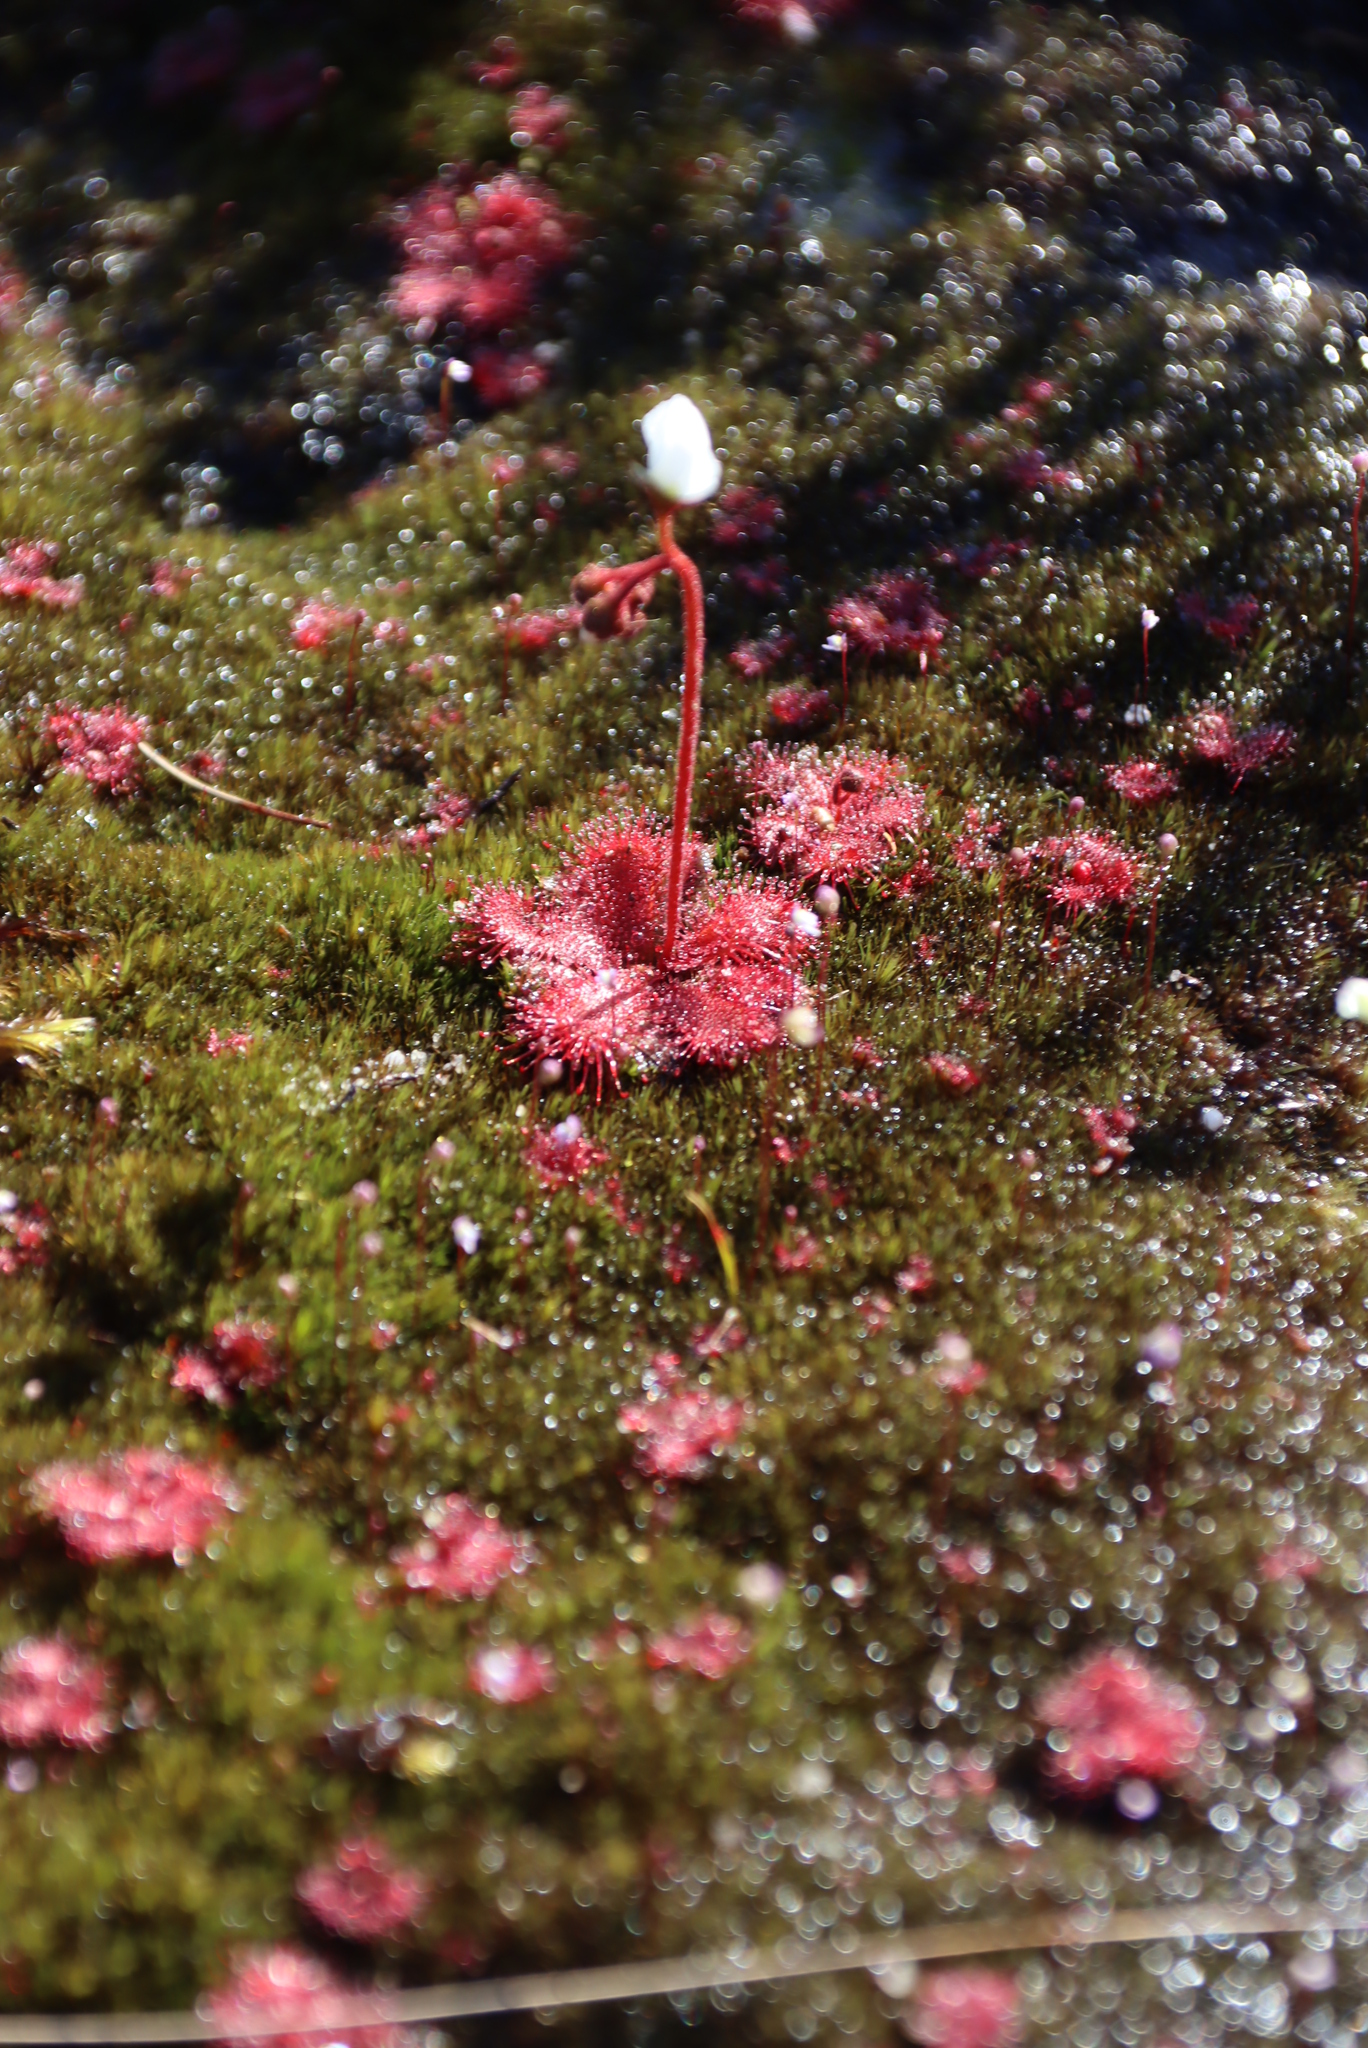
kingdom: Plantae
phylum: Tracheophyta
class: Magnoliopsida
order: Caryophyllales
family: Droseraceae
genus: Drosera
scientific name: Drosera trinervia
